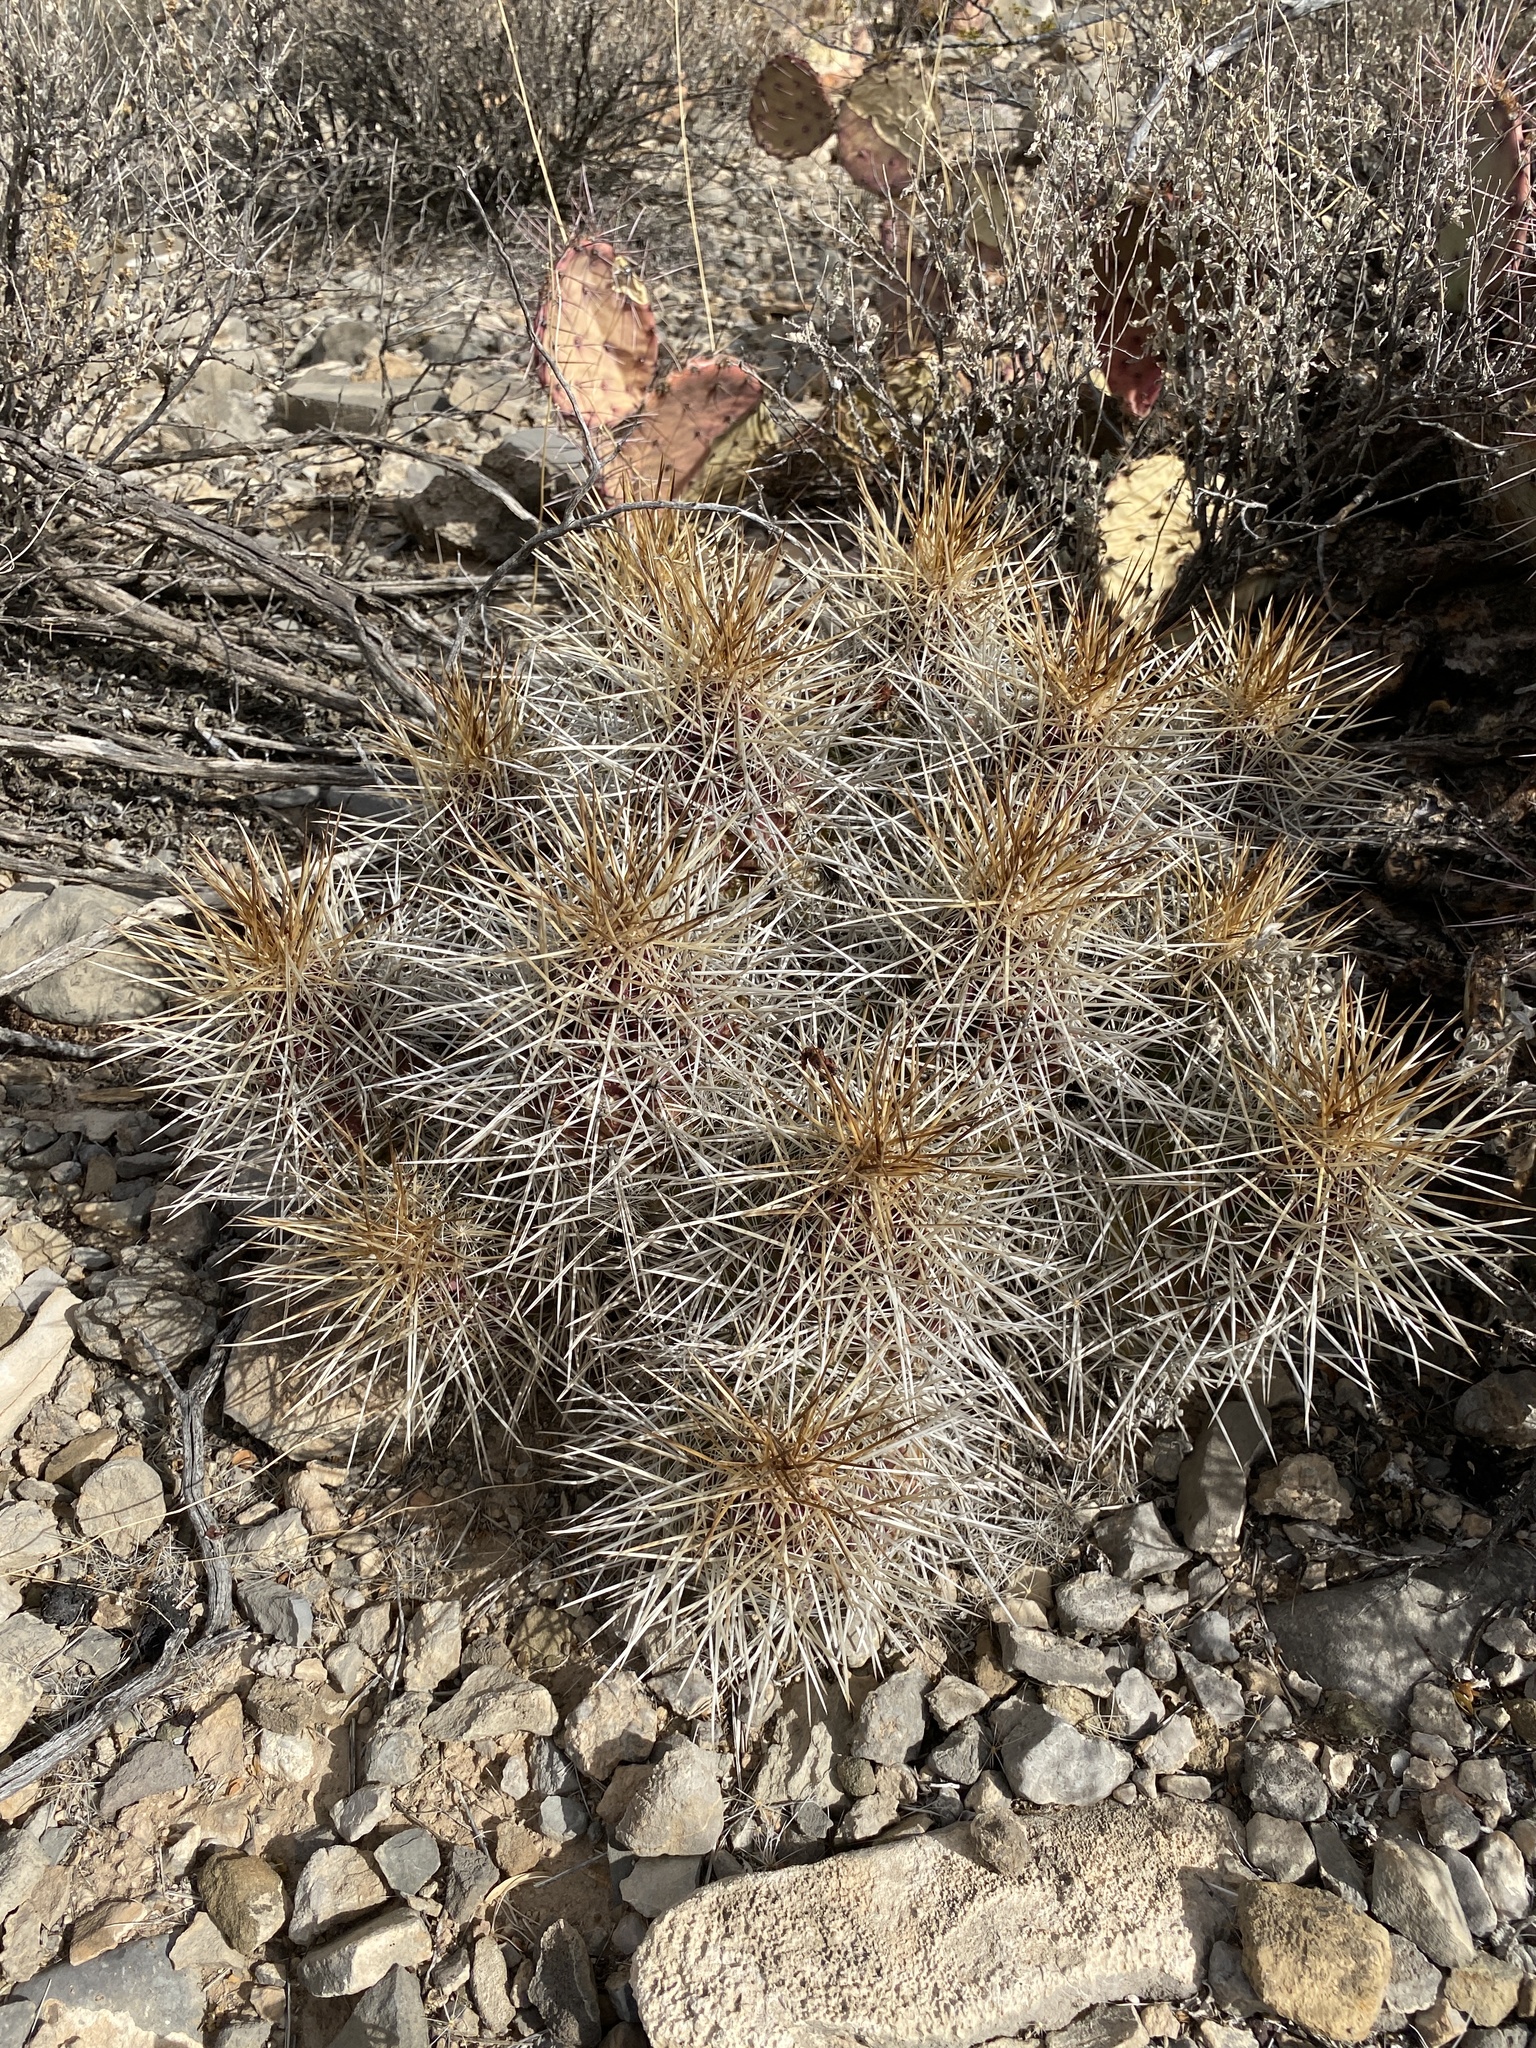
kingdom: Plantae
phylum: Tracheophyta
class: Magnoliopsida
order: Caryophyllales
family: Cactaceae
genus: Echinocereus
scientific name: Echinocereus stramineus
